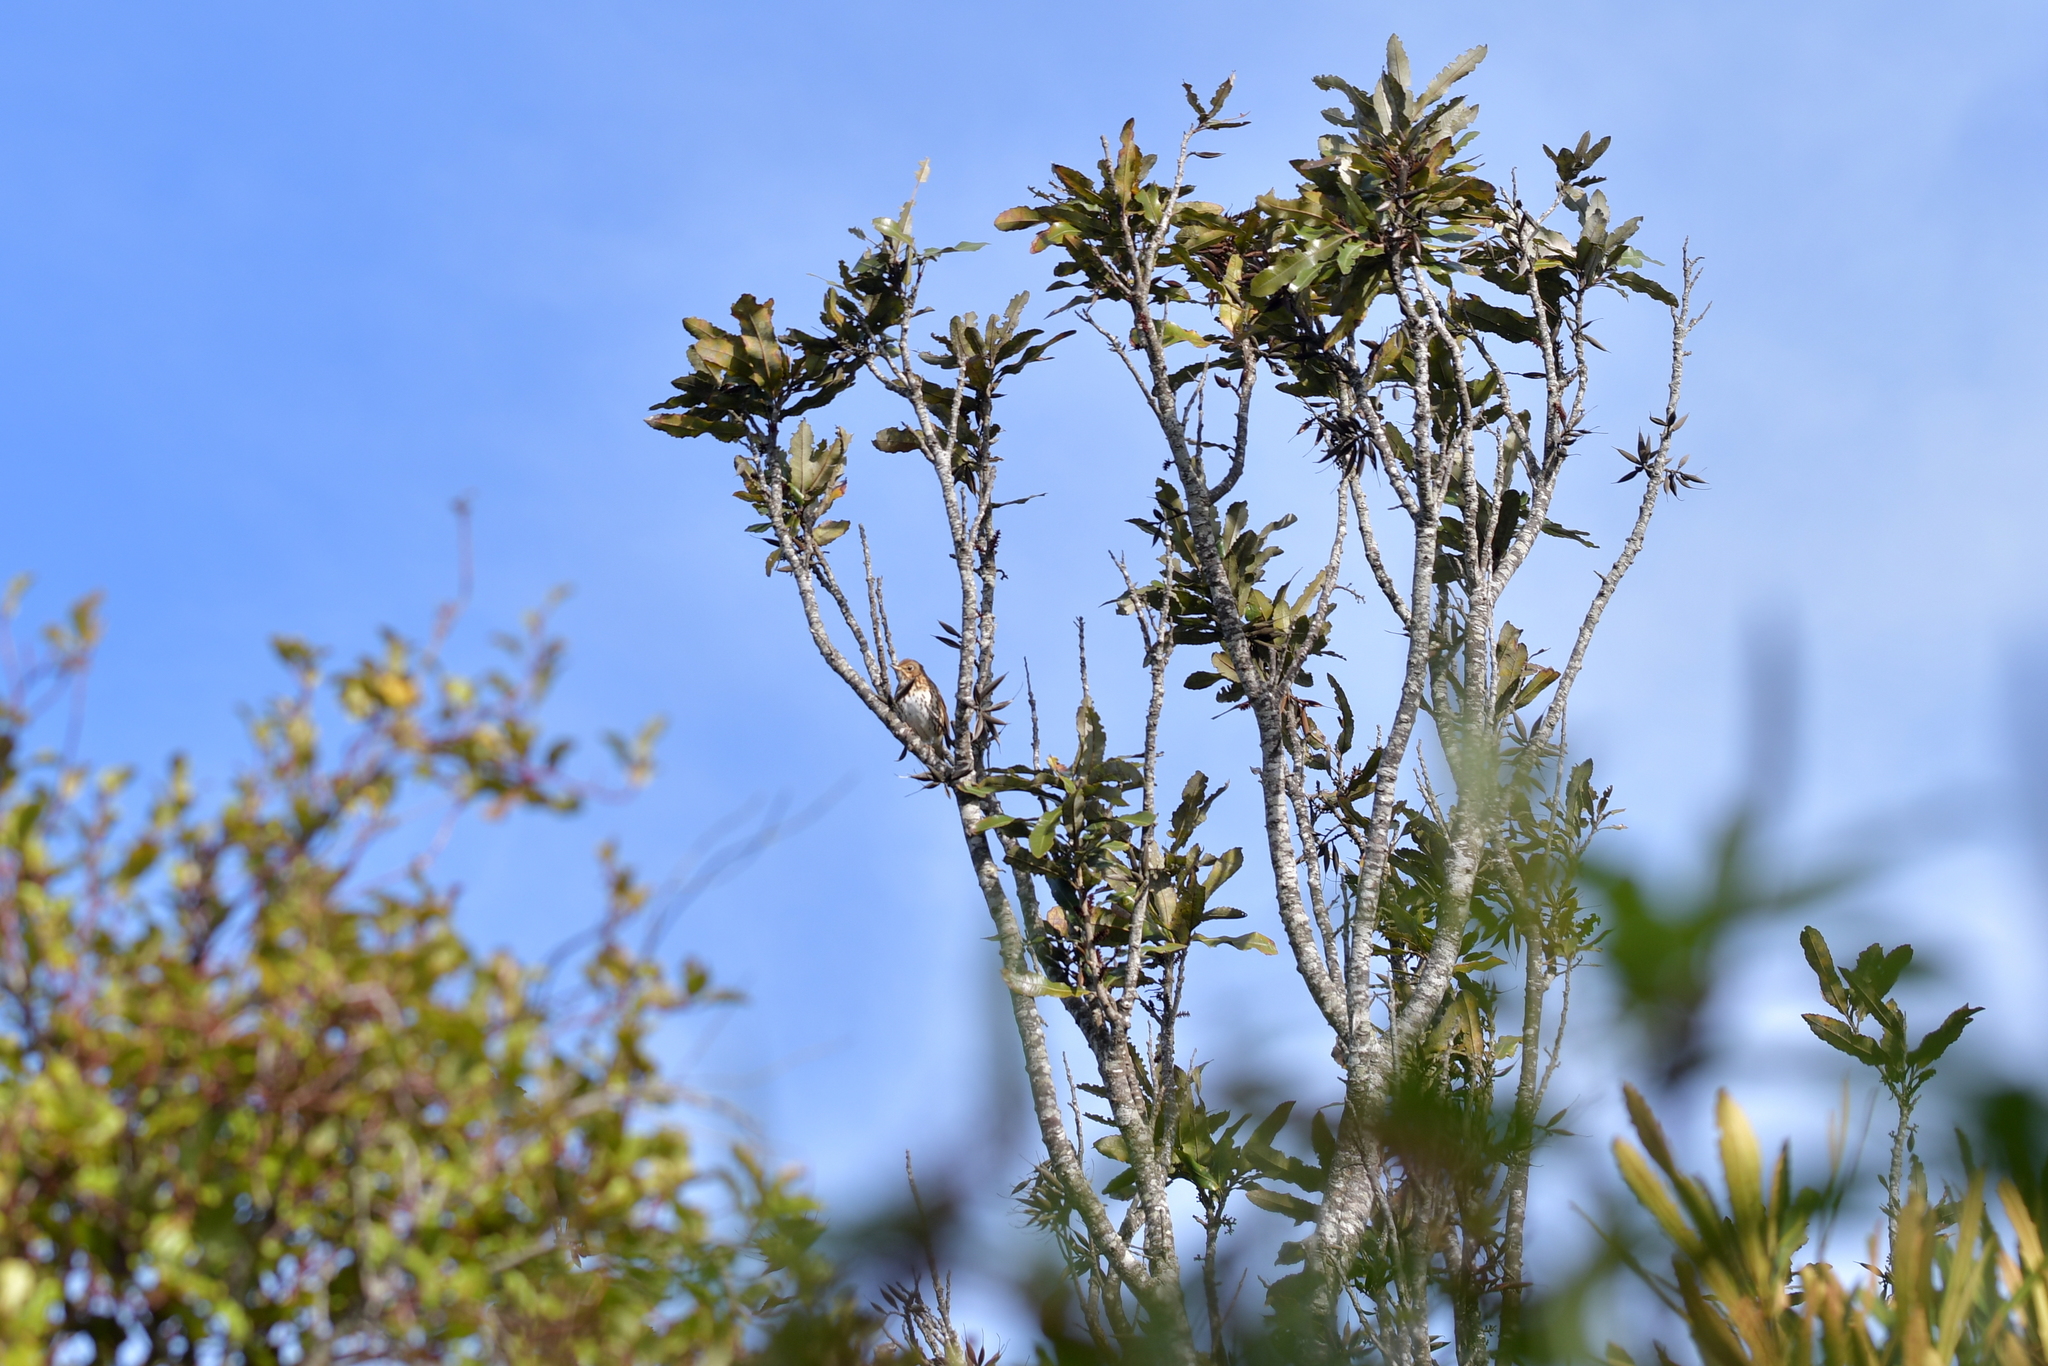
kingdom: Animalia
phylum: Chordata
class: Aves
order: Passeriformes
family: Turdidae
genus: Turdus
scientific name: Turdus philomelos
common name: Song thrush
